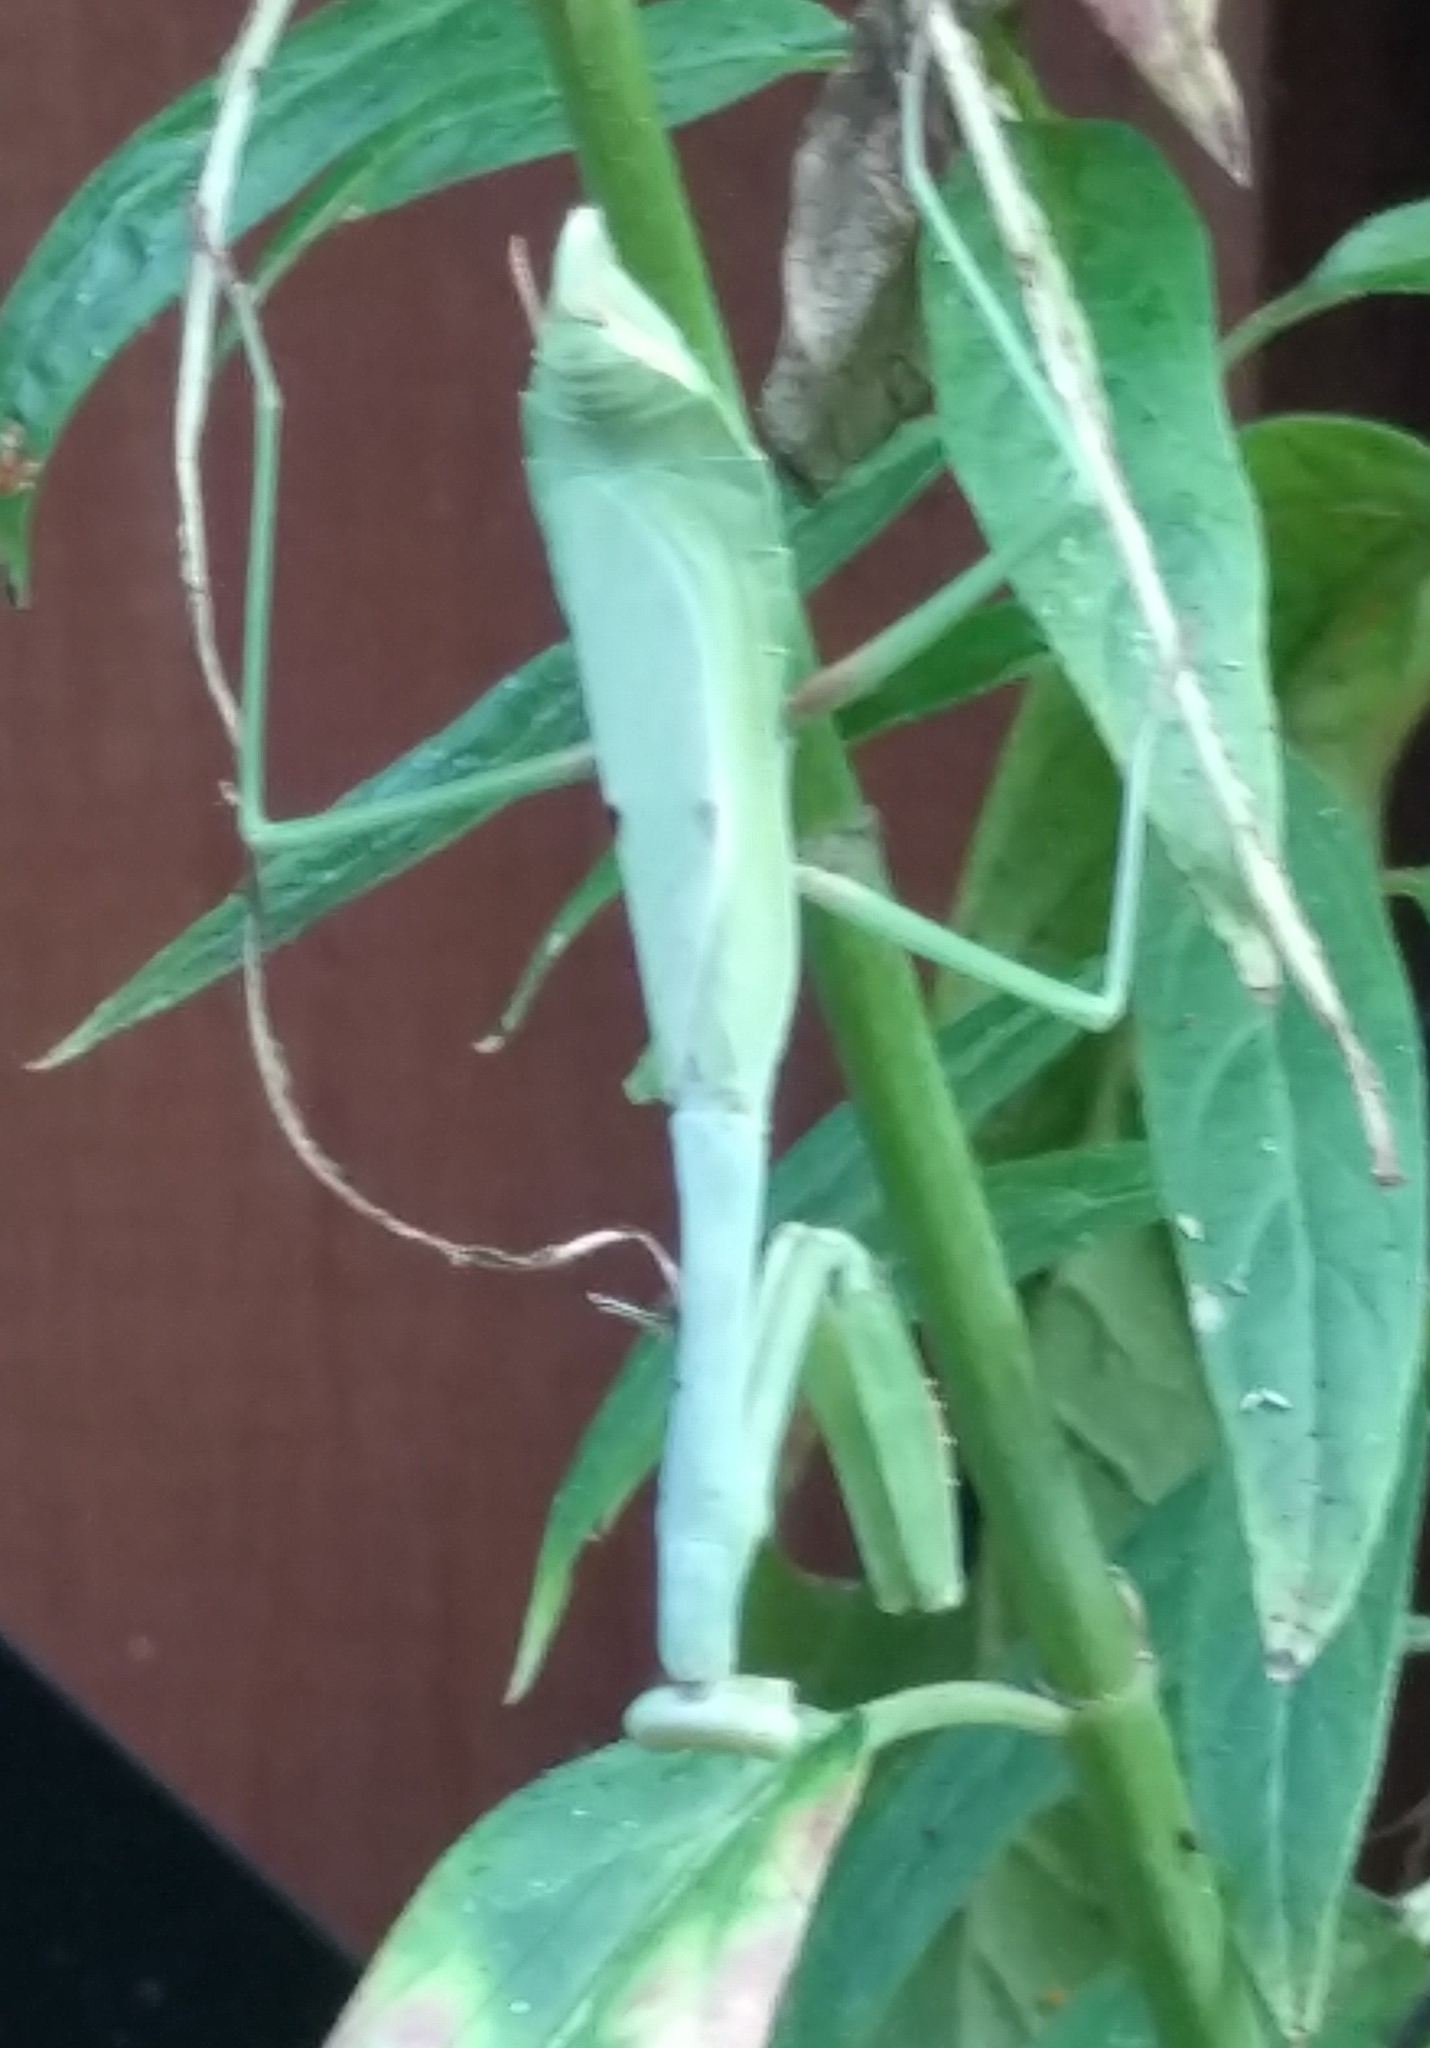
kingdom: Animalia
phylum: Arthropoda
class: Insecta
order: Mantodea
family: Mantidae
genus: Stagmomantis
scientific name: Stagmomantis carolina
